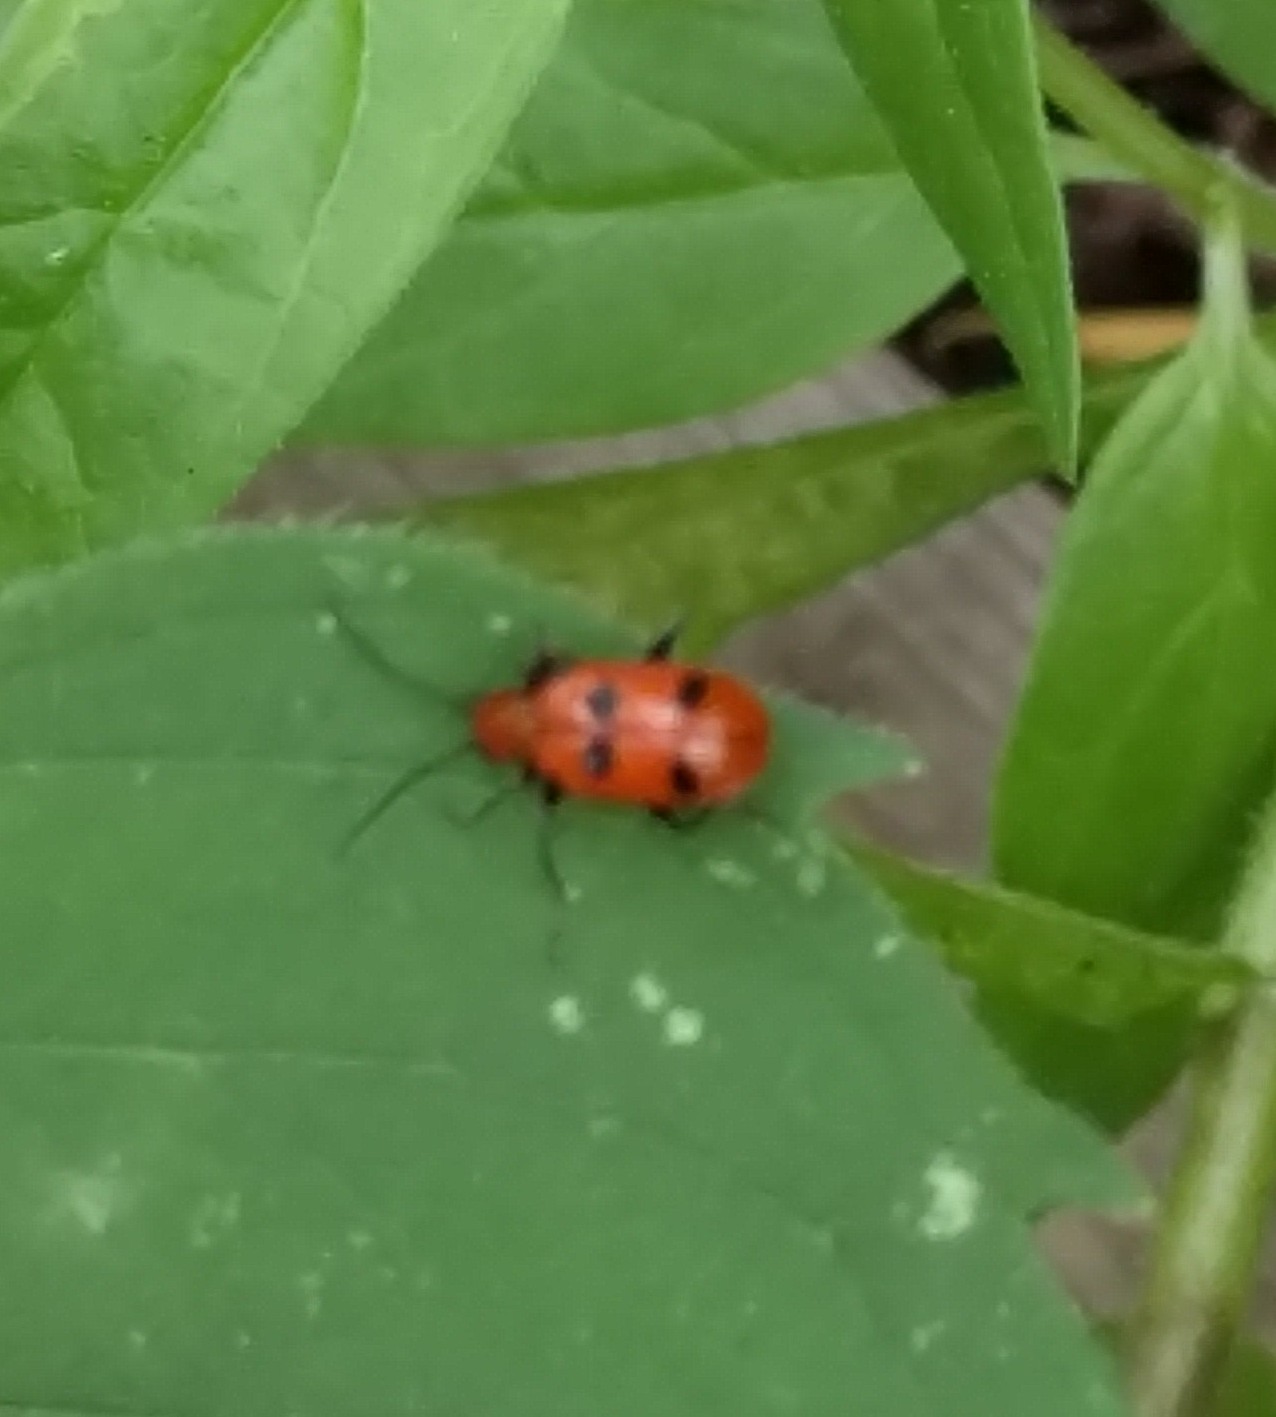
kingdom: Animalia
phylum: Arthropoda
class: Insecta
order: Coleoptera
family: Chrysomelidae
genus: Neolema
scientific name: Neolema sexpunctata
